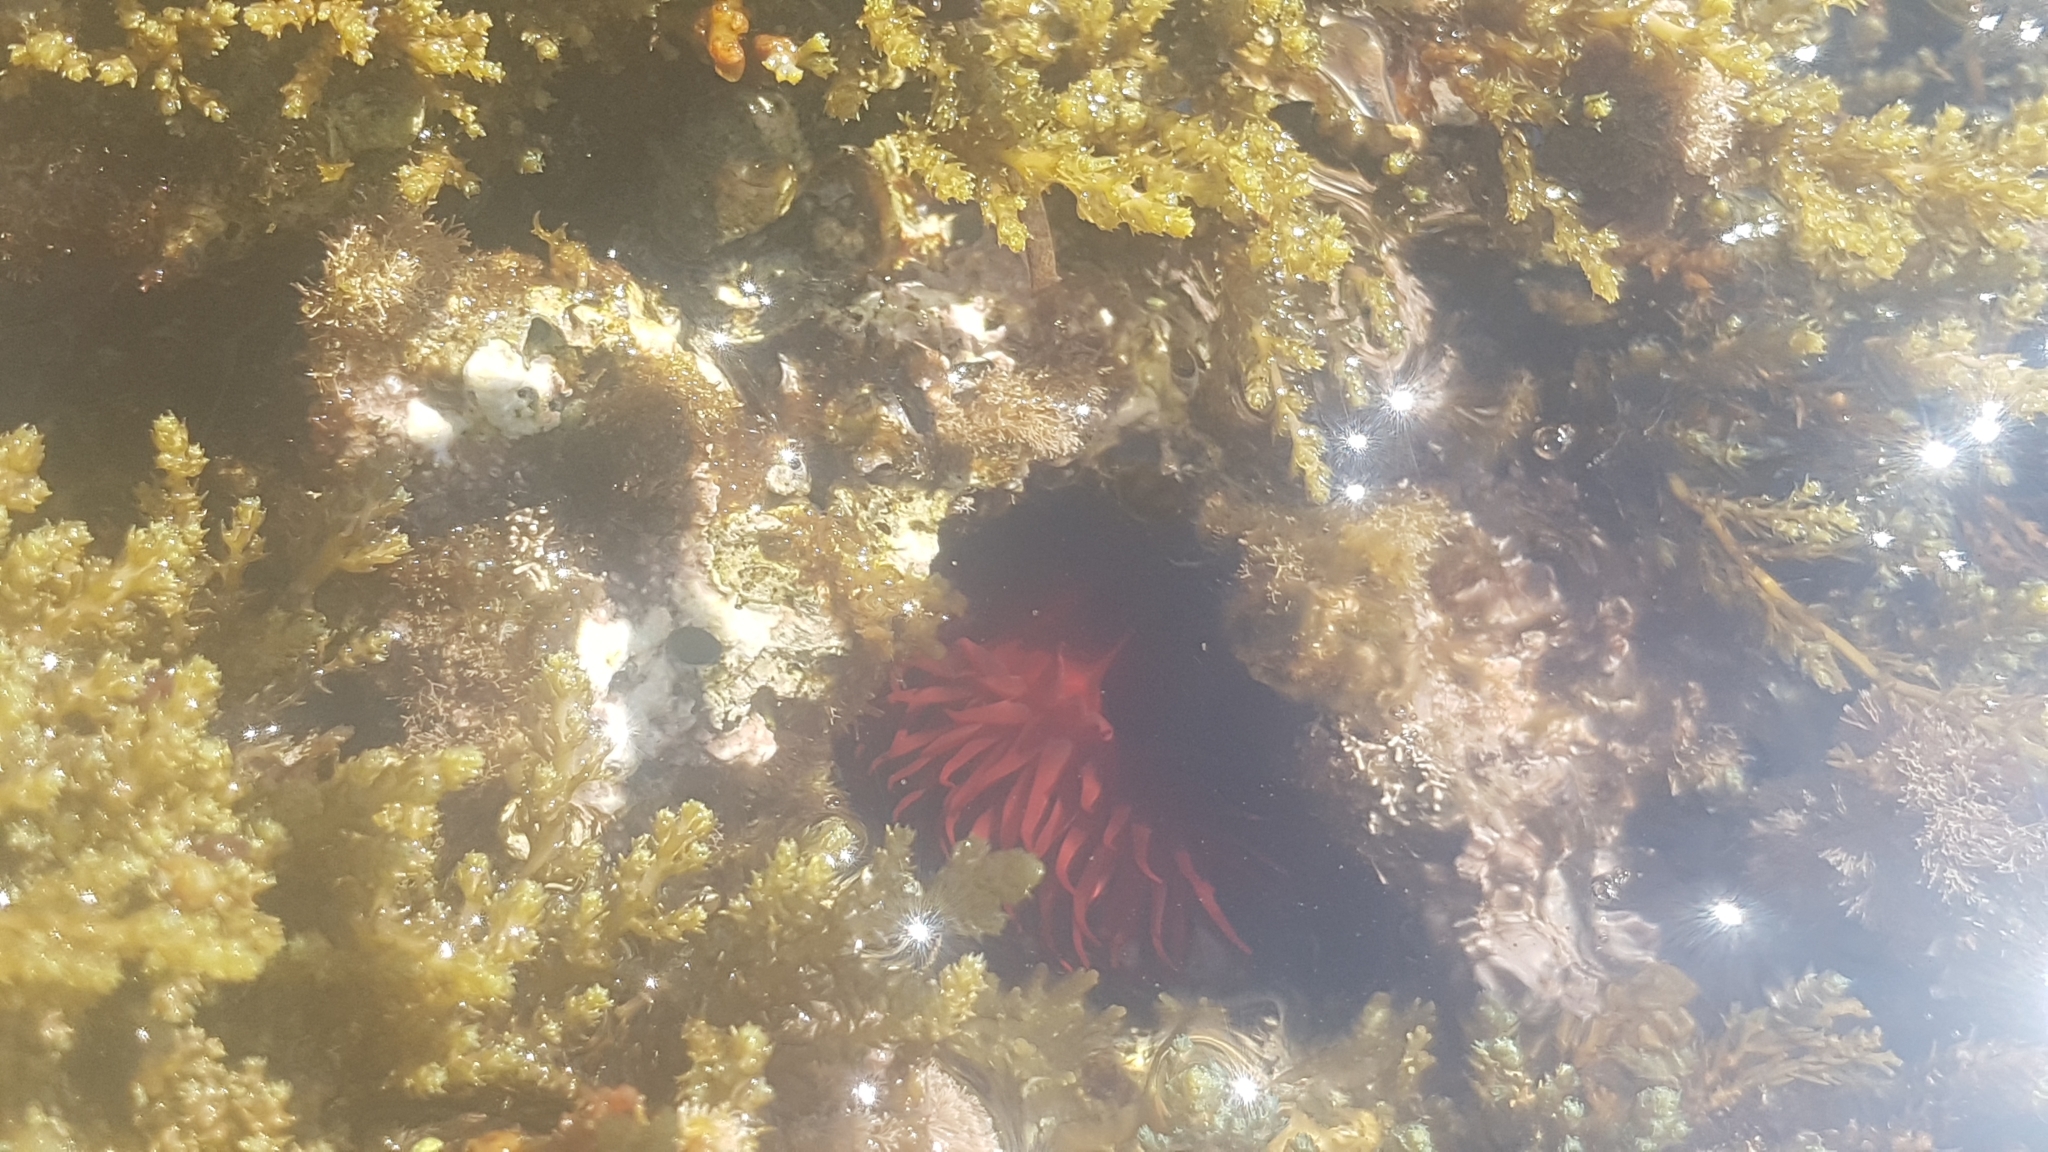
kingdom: Animalia
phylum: Cnidaria
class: Anthozoa
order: Actiniaria
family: Actiniidae
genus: Actinia
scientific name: Actinia mediterranea
